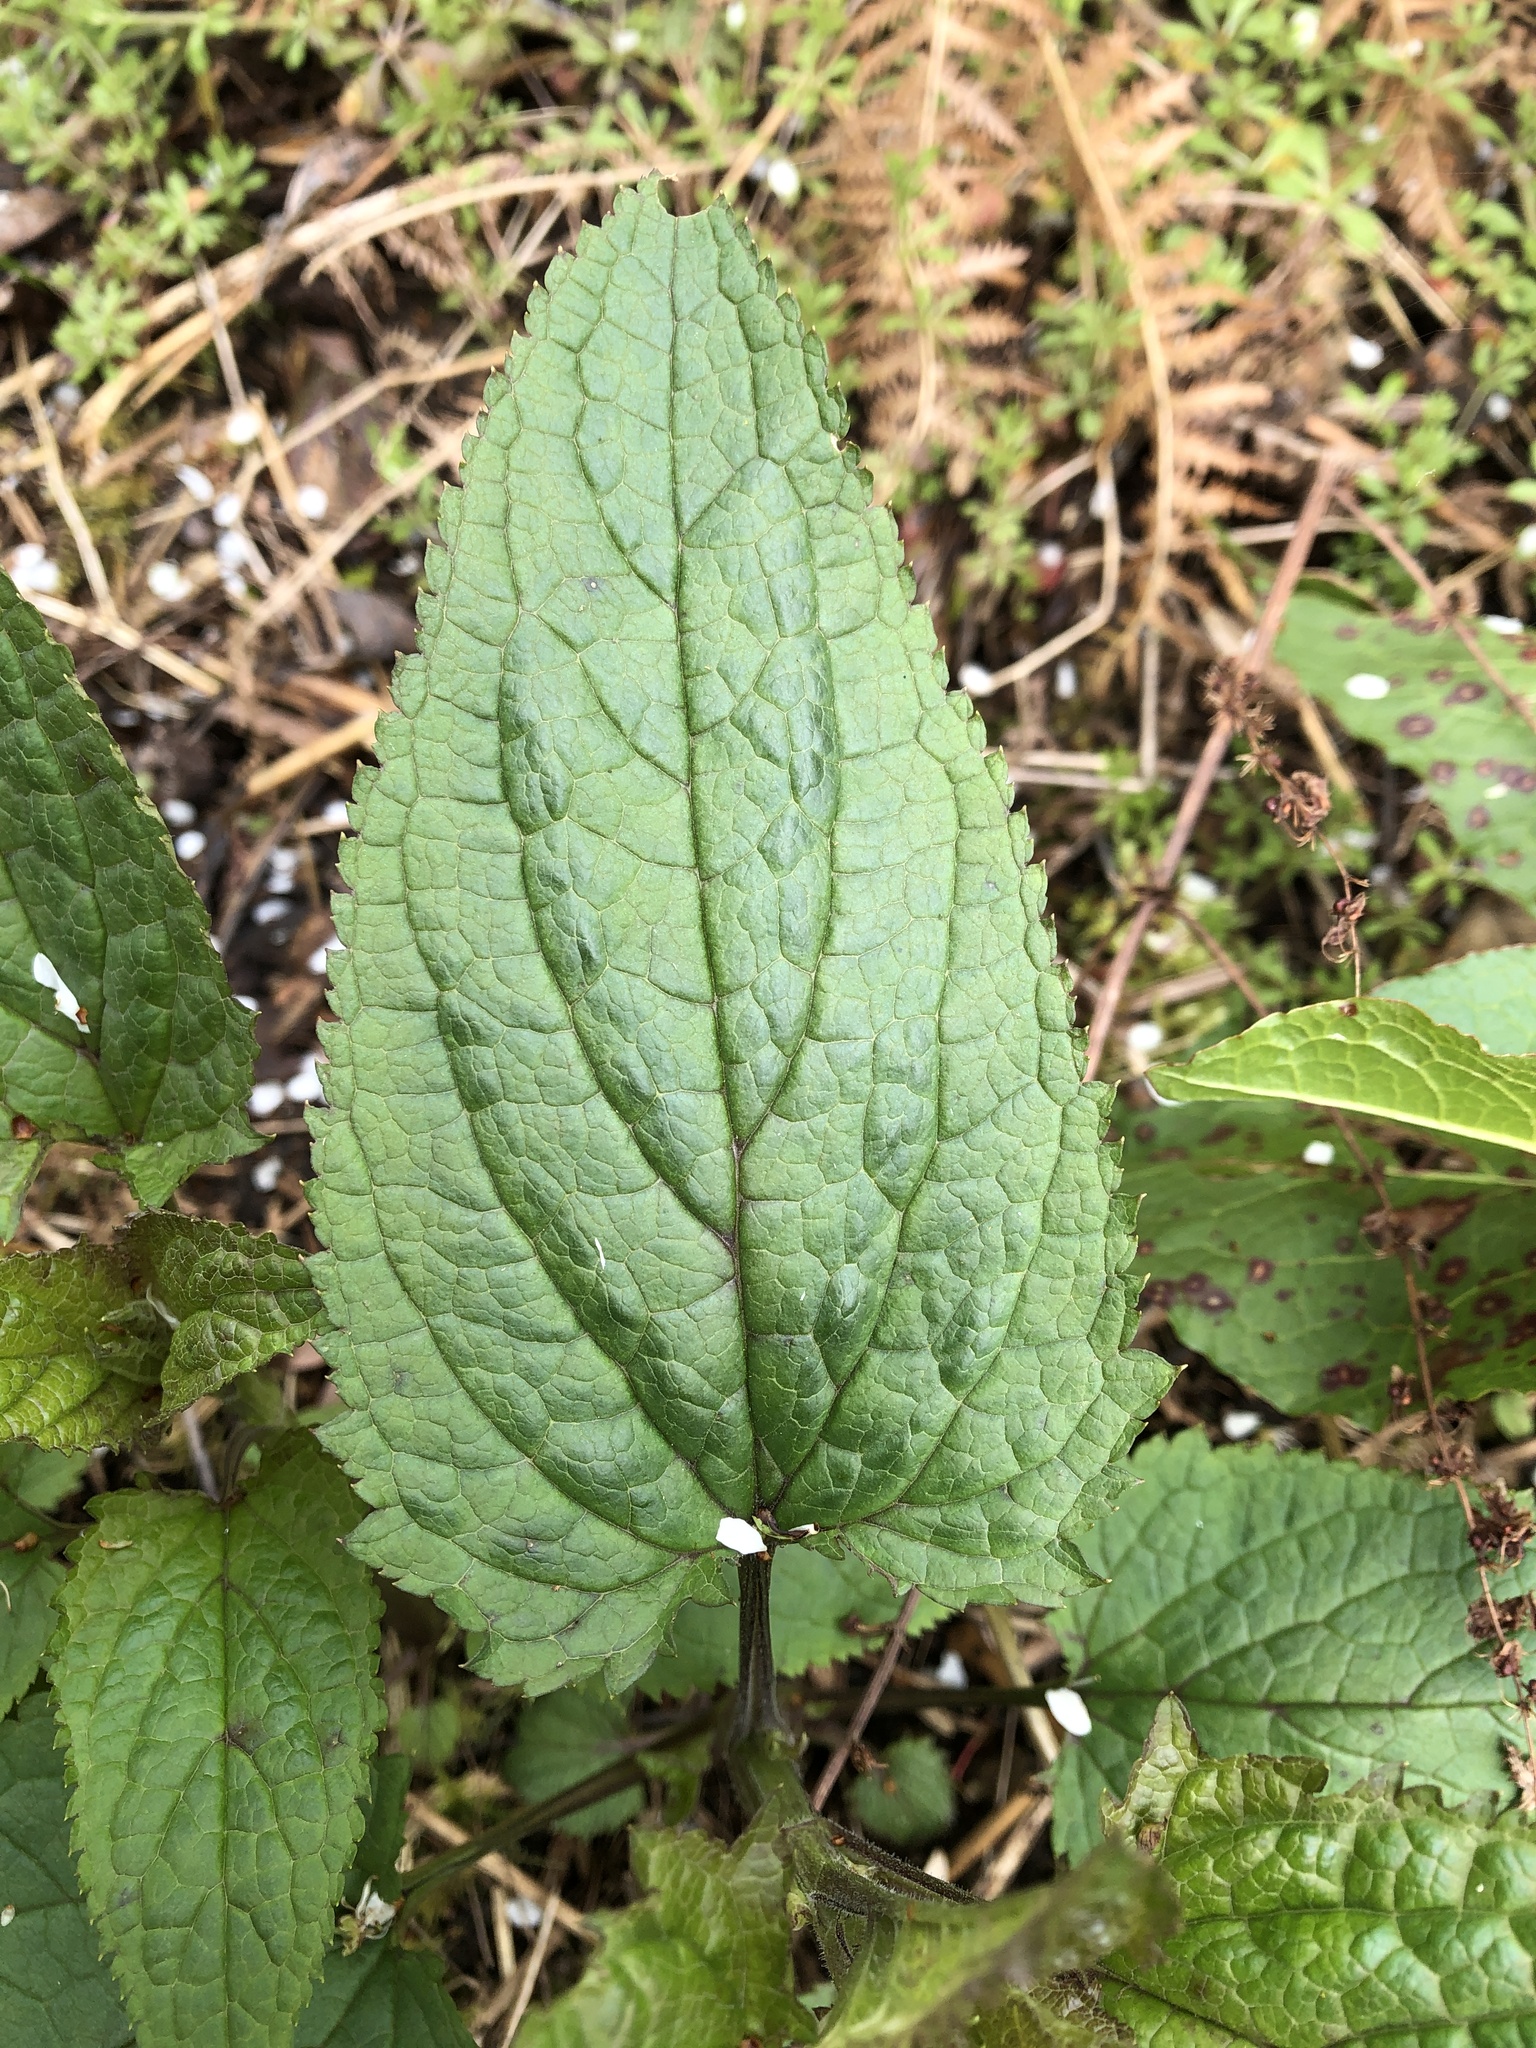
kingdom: Plantae
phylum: Tracheophyta
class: Magnoliopsida
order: Lamiales
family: Scrophulariaceae
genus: Scrophularia
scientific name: Scrophularia nodosa
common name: Common figwort
